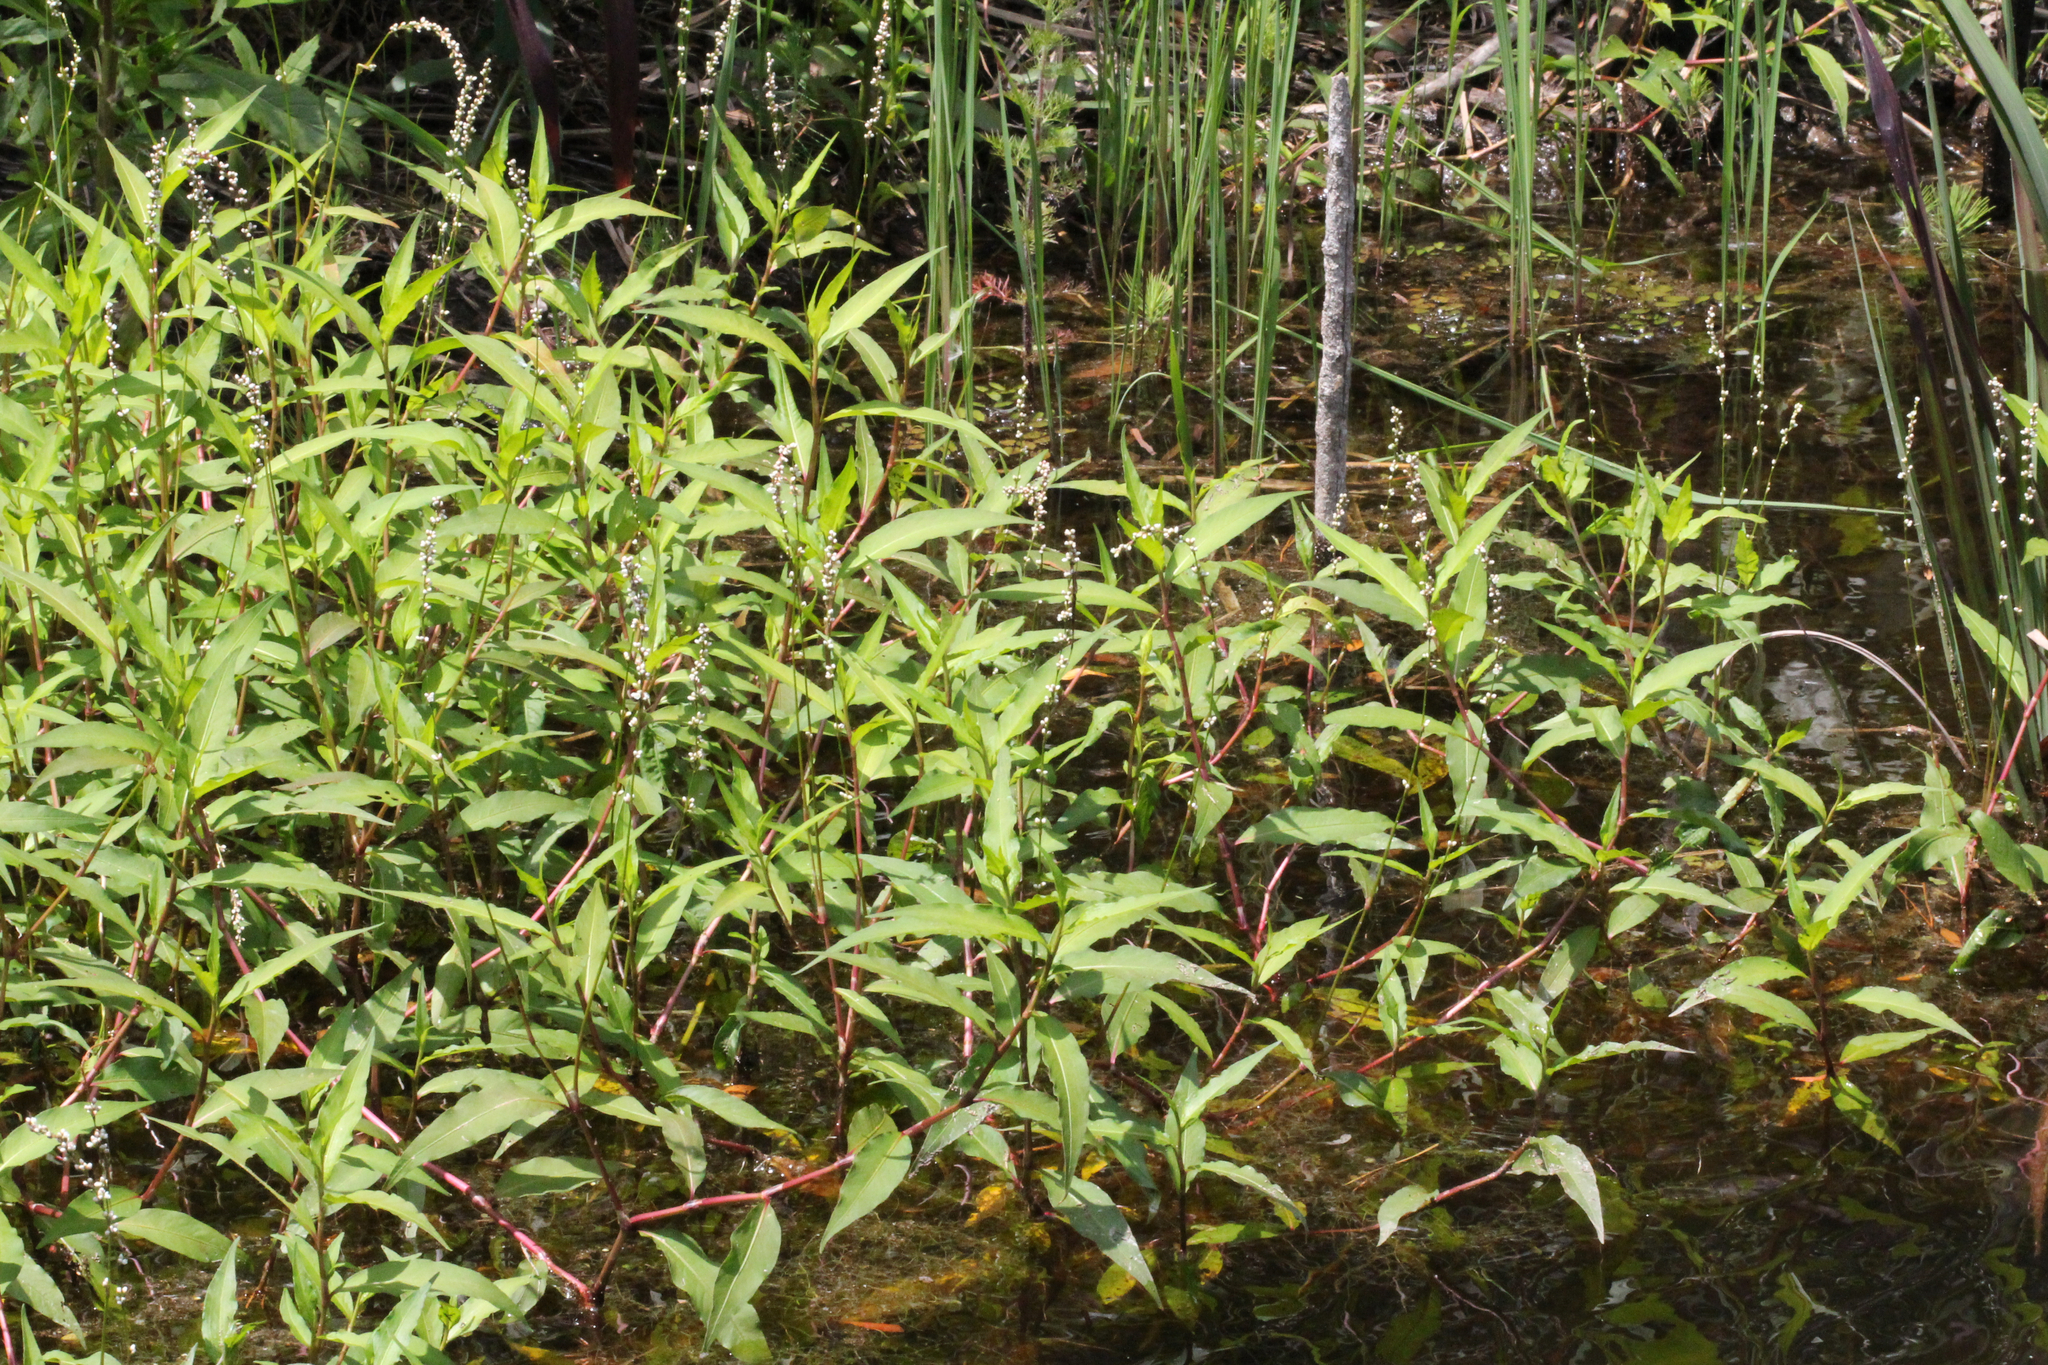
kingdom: Plantae
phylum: Tracheophyta
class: Magnoliopsida
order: Caryophyllales
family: Polygonaceae
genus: Persicaria
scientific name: Persicaria robustior
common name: Stout smartweed
